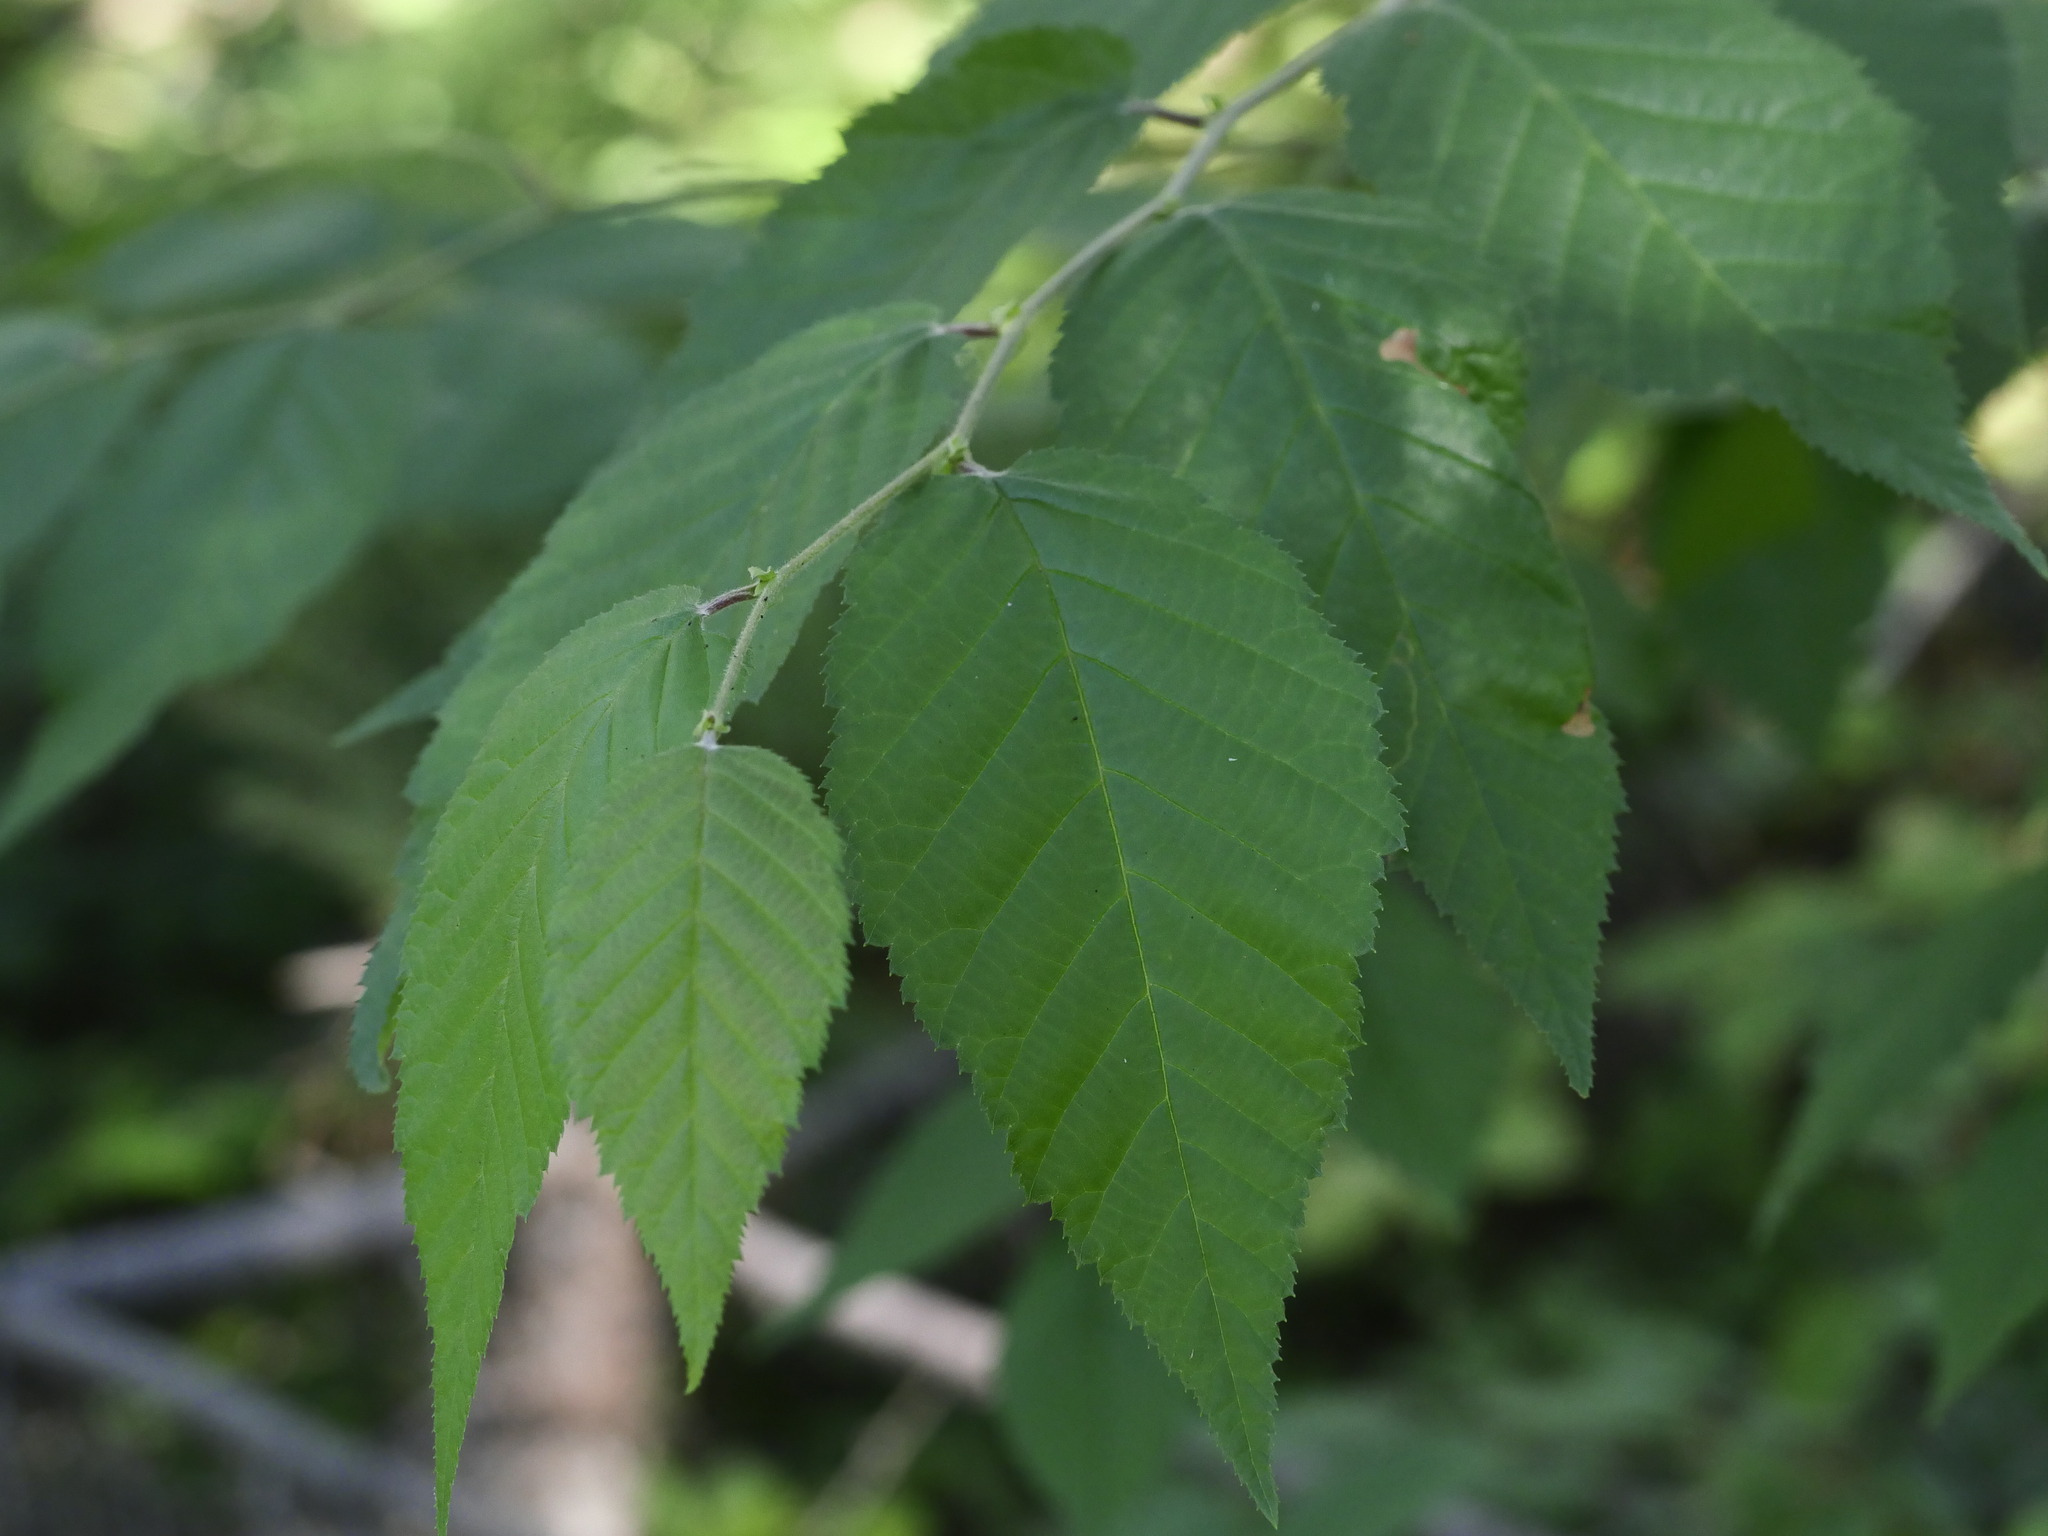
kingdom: Plantae
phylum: Tracheophyta
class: Magnoliopsida
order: Fagales
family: Betulaceae
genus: Betula
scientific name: Betula alleghaniensis
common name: Yellow birch
